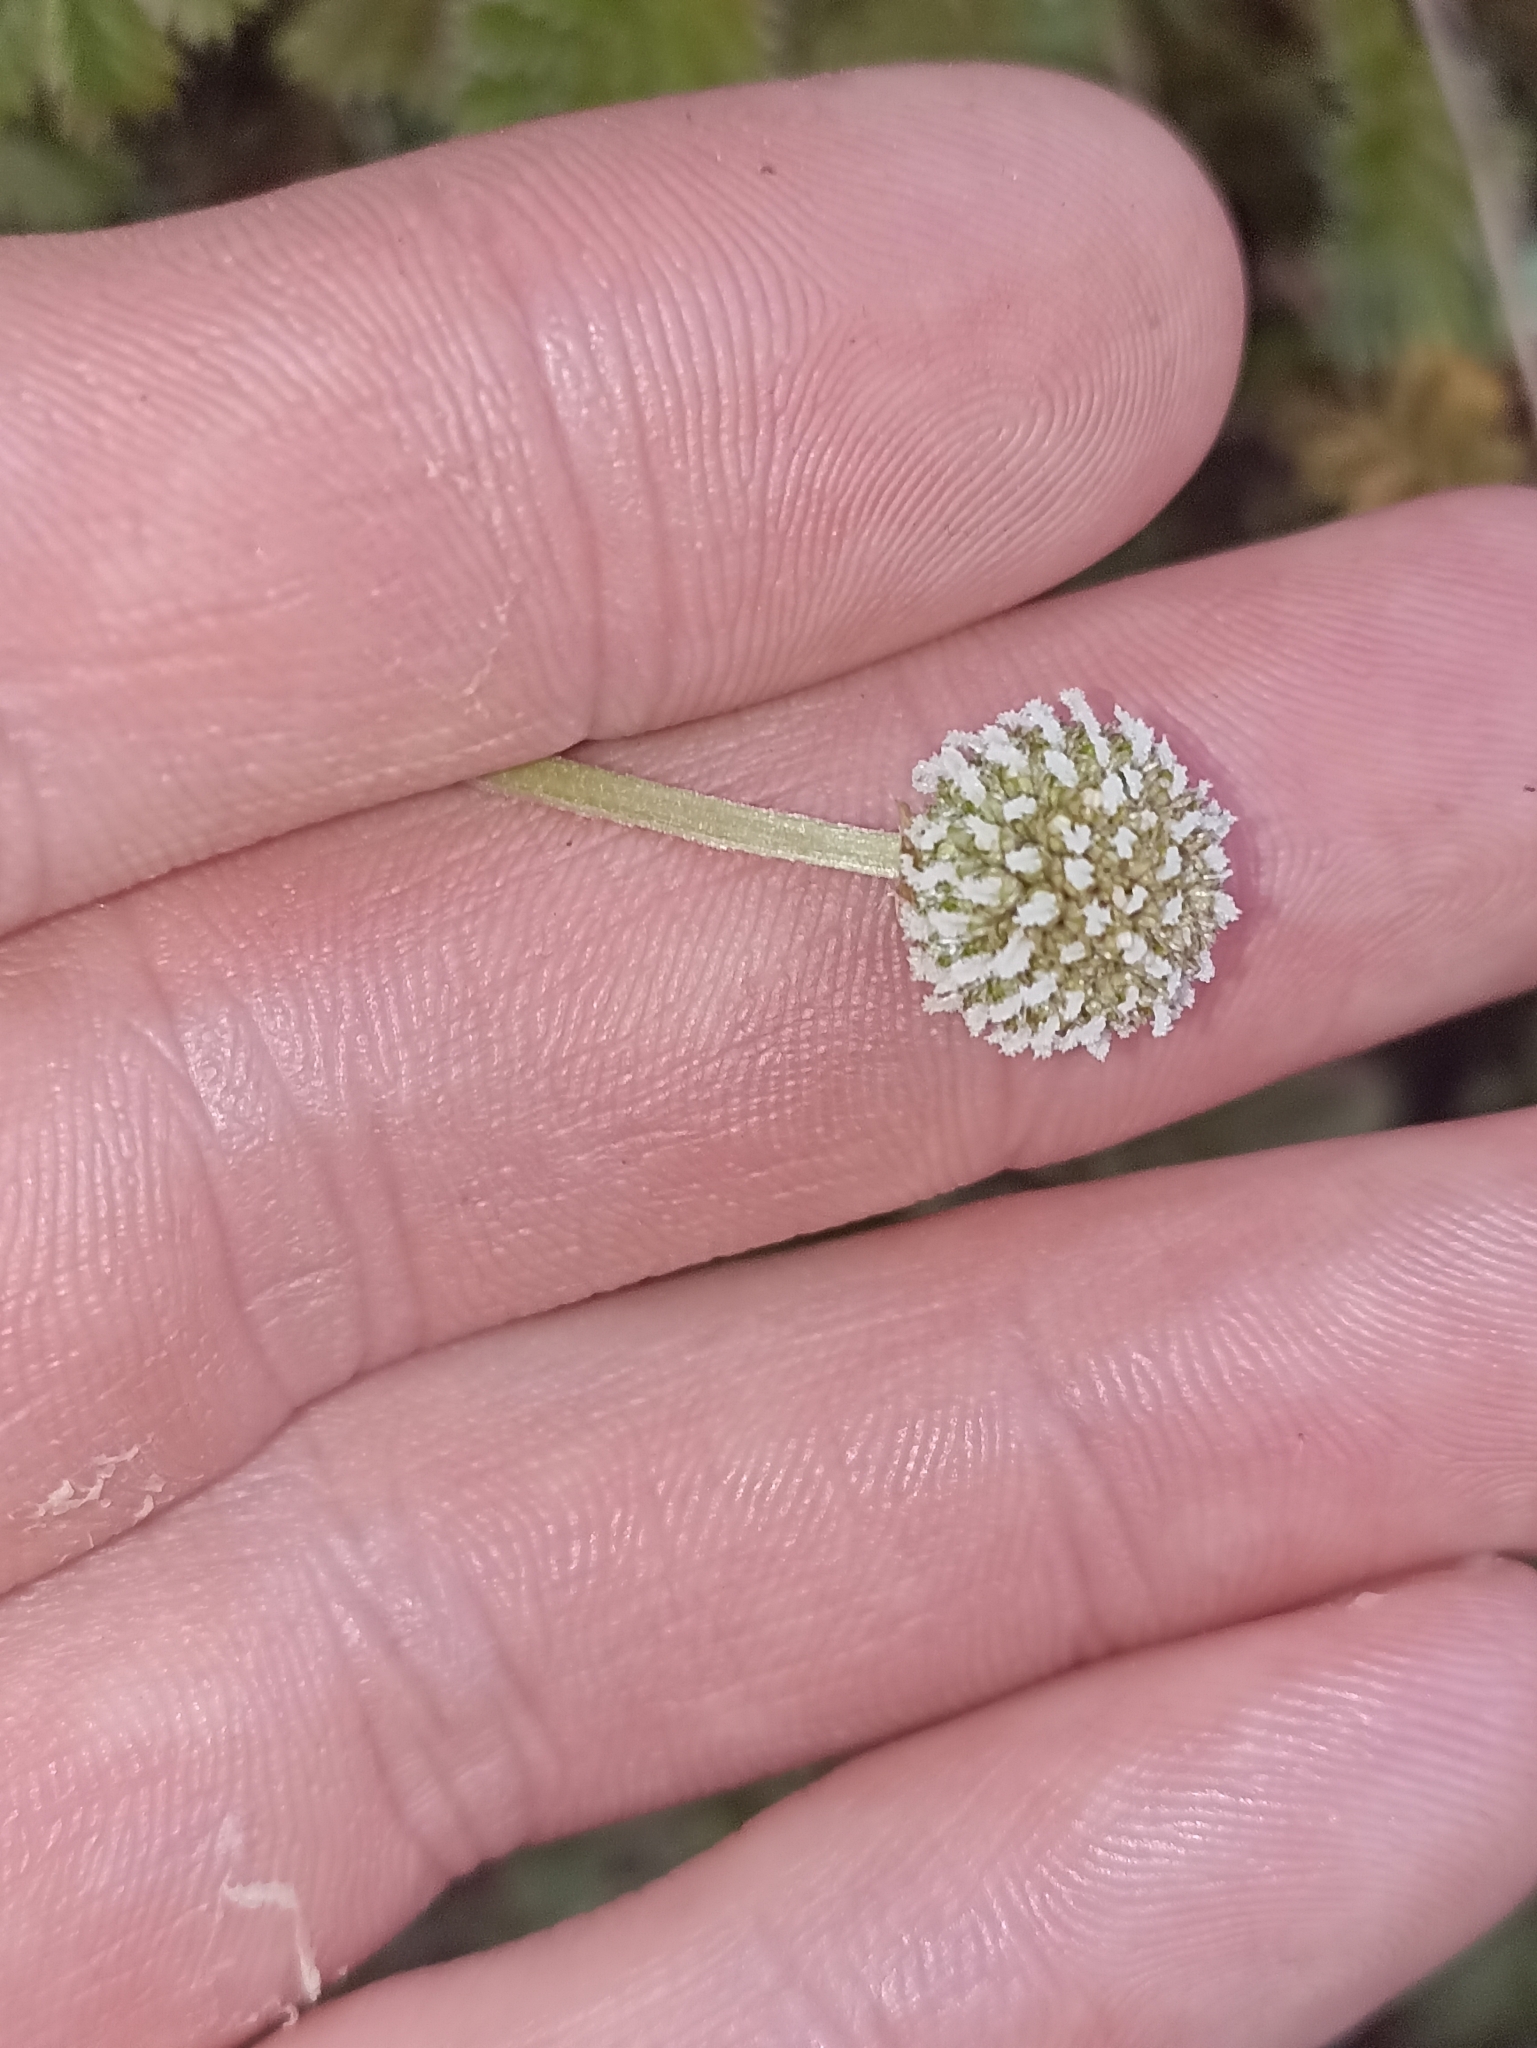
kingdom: Plantae
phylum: Tracheophyta
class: Magnoliopsida
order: Rosales
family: Rosaceae
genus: Acaena
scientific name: Acaena anserinifolia
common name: Bronze pirri-pirri-bur
